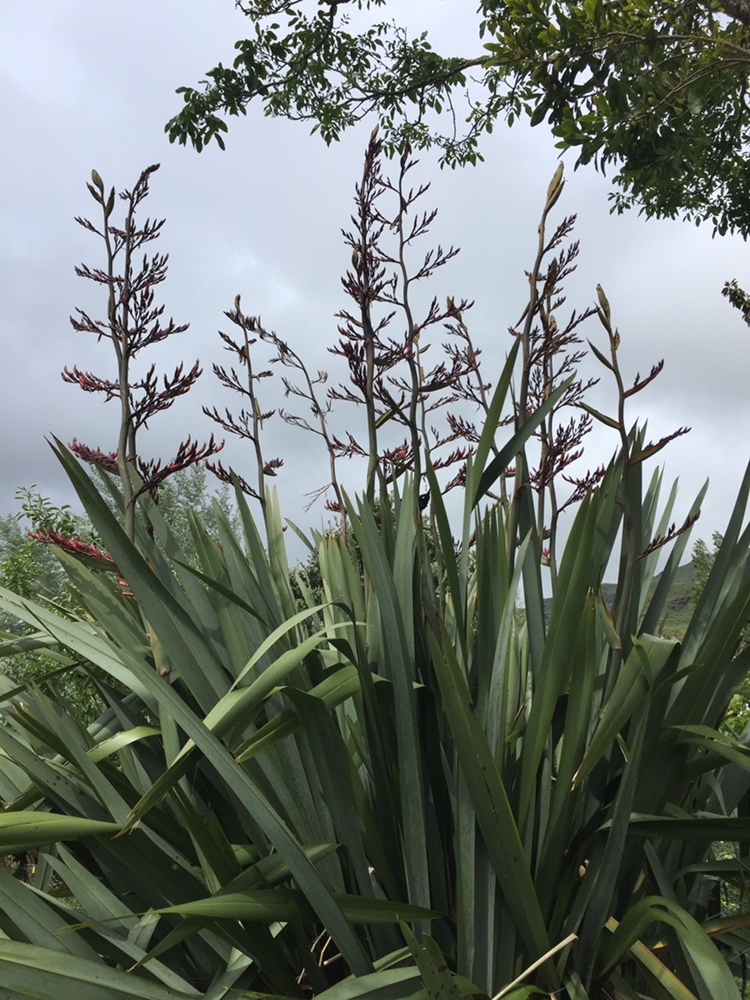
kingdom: Plantae
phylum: Tracheophyta
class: Liliopsida
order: Asparagales
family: Asphodelaceae
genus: Phormium
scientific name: Phormium tenax
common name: New zealand flax
